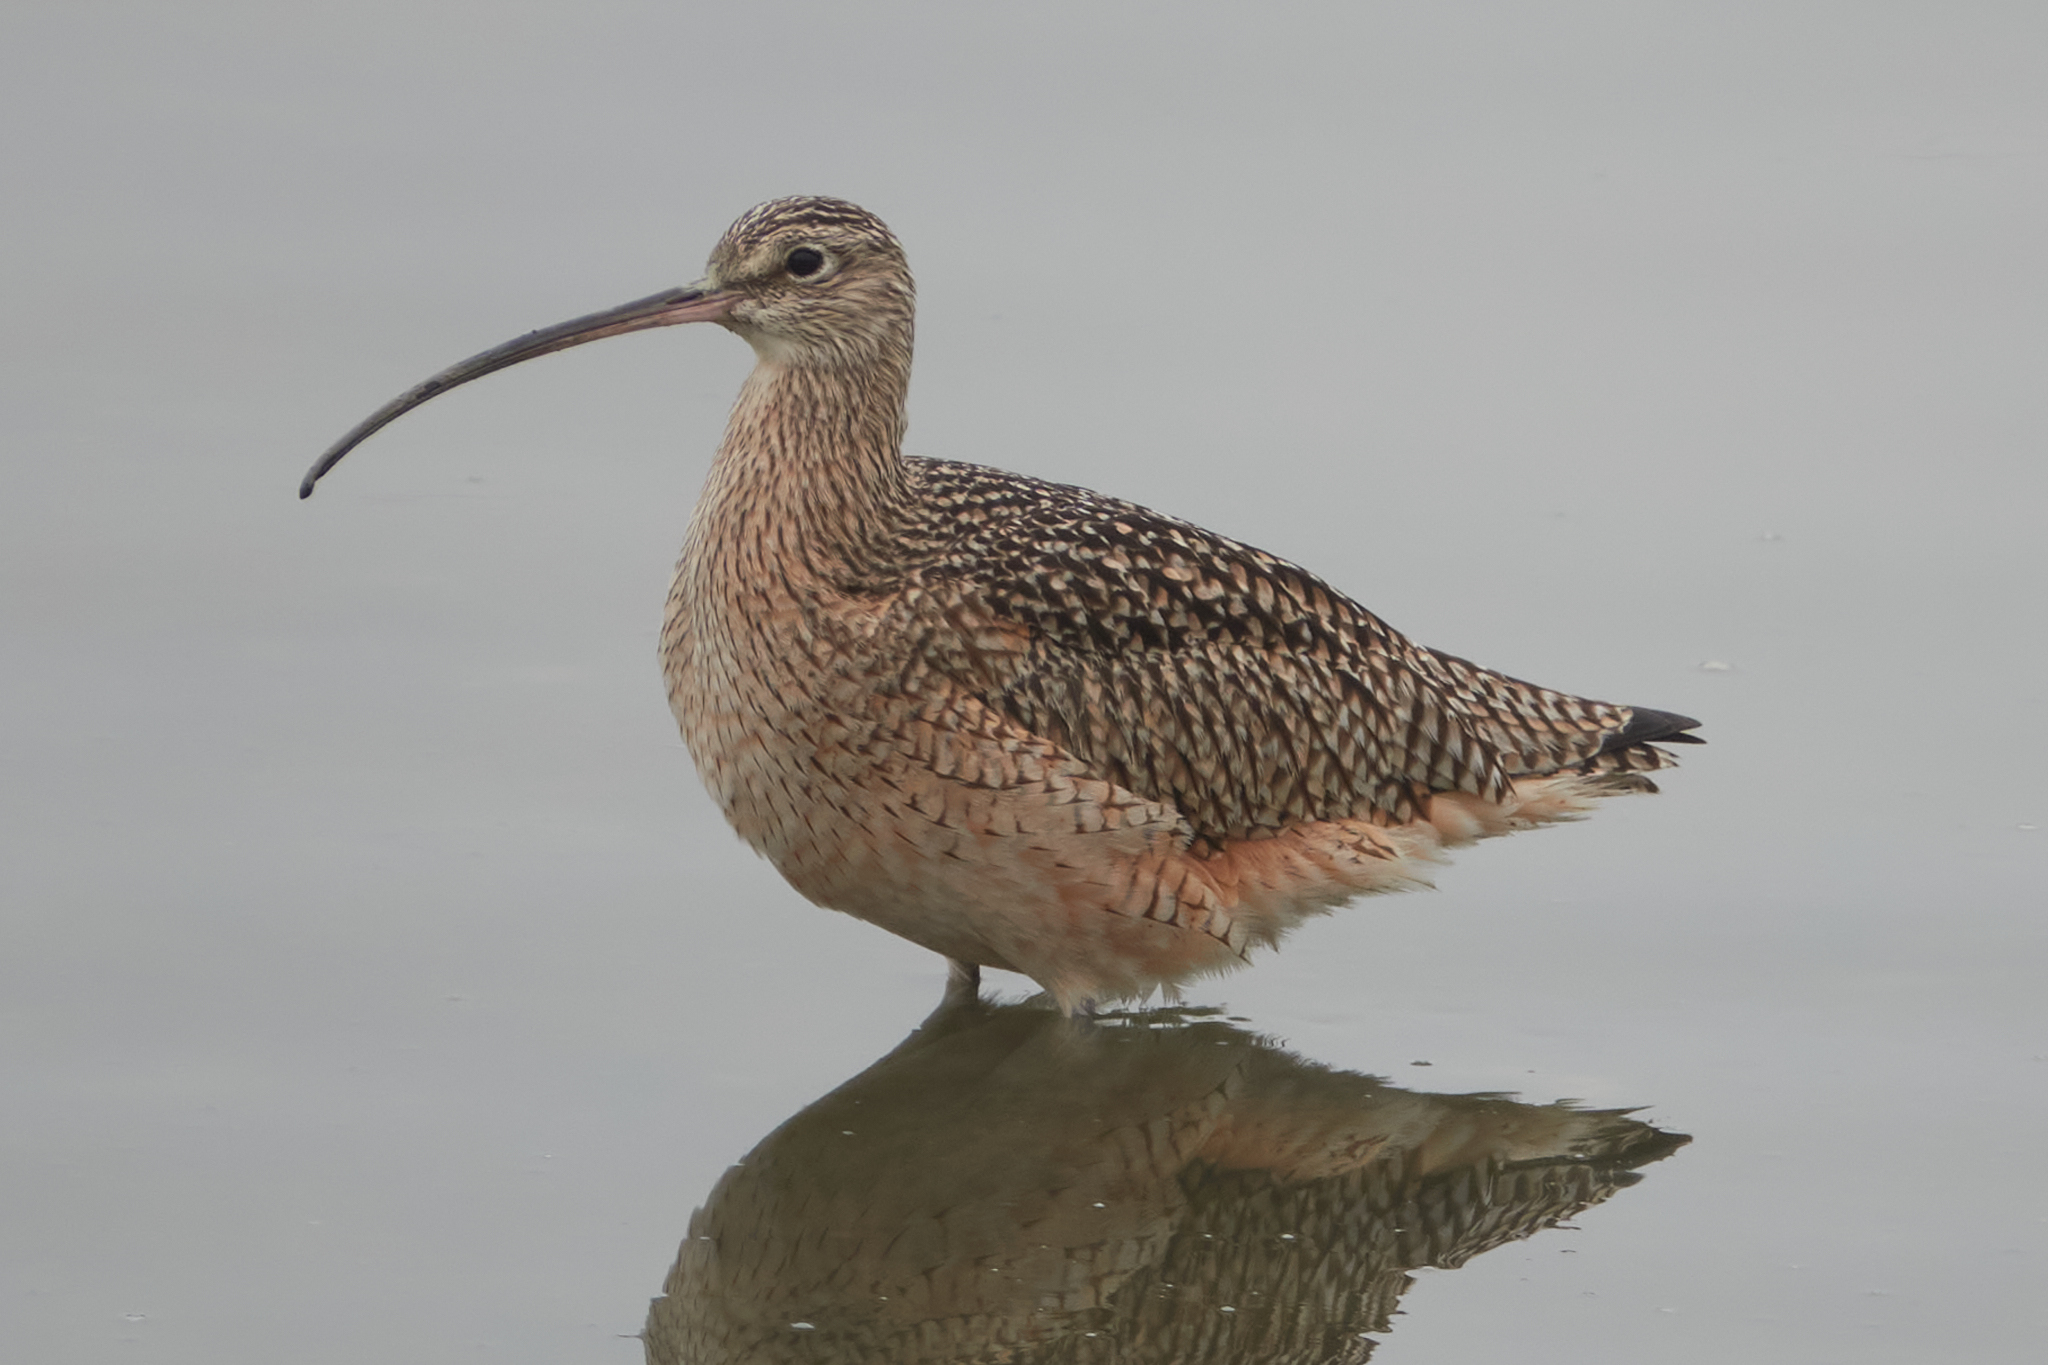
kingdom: Animalia
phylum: Chordata
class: Aves
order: Charadriiformes
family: Scolopacidae
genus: Numenius
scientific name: Numenius americanus
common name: Long-billed curlew
